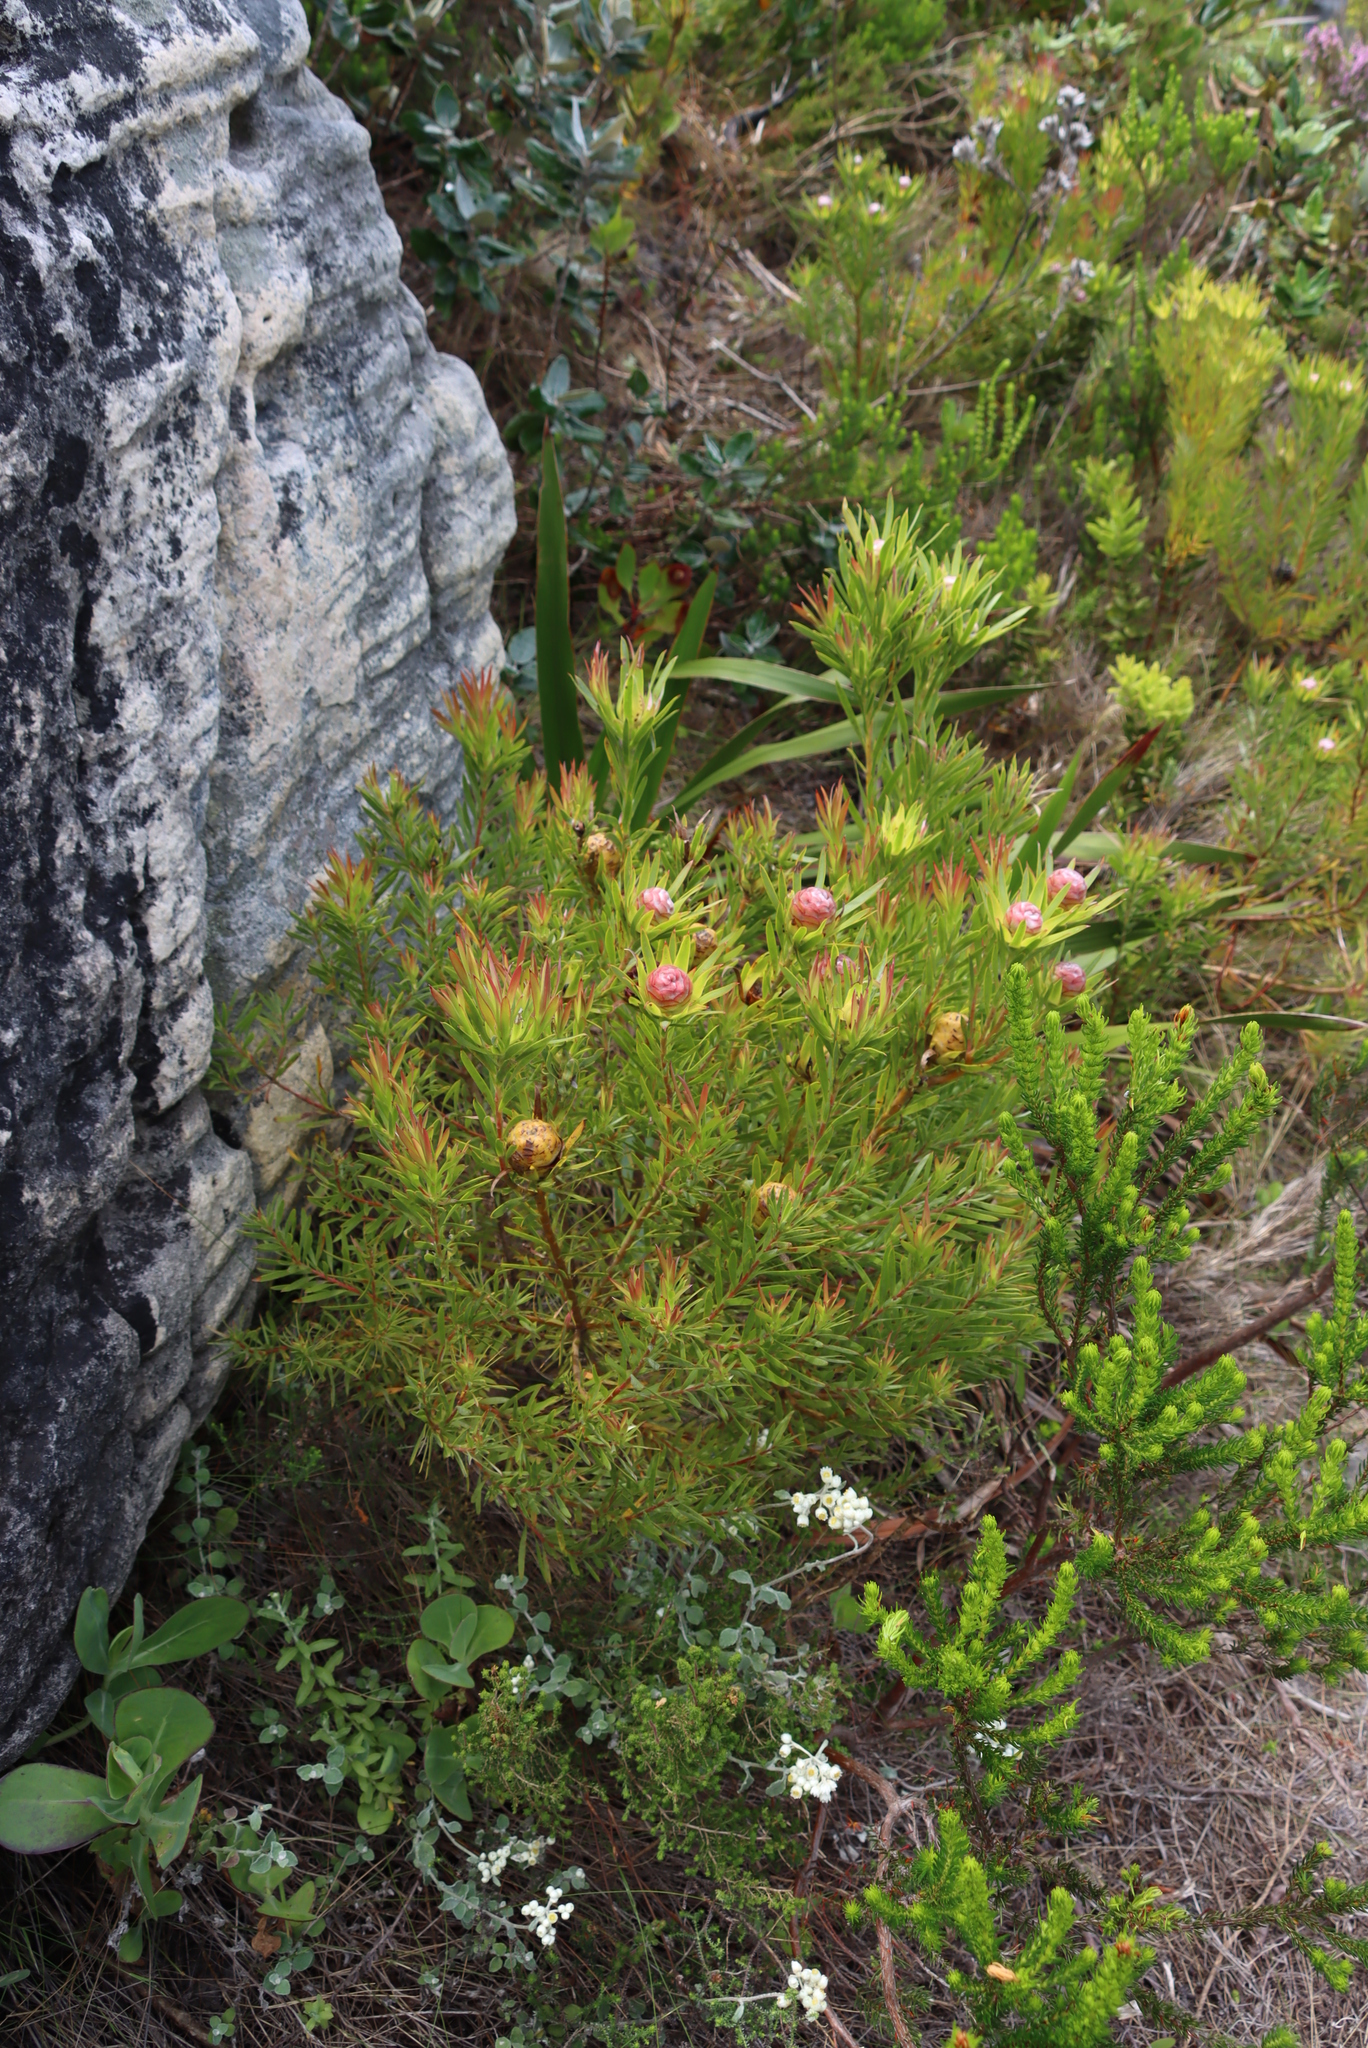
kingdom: Plantae
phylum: Tracheophyta
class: Magnoliopsida
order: Proteales
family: Proteaceae
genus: Leucadendron
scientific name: Leucadendron xanthoconus
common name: Sickle-leaf conebush
